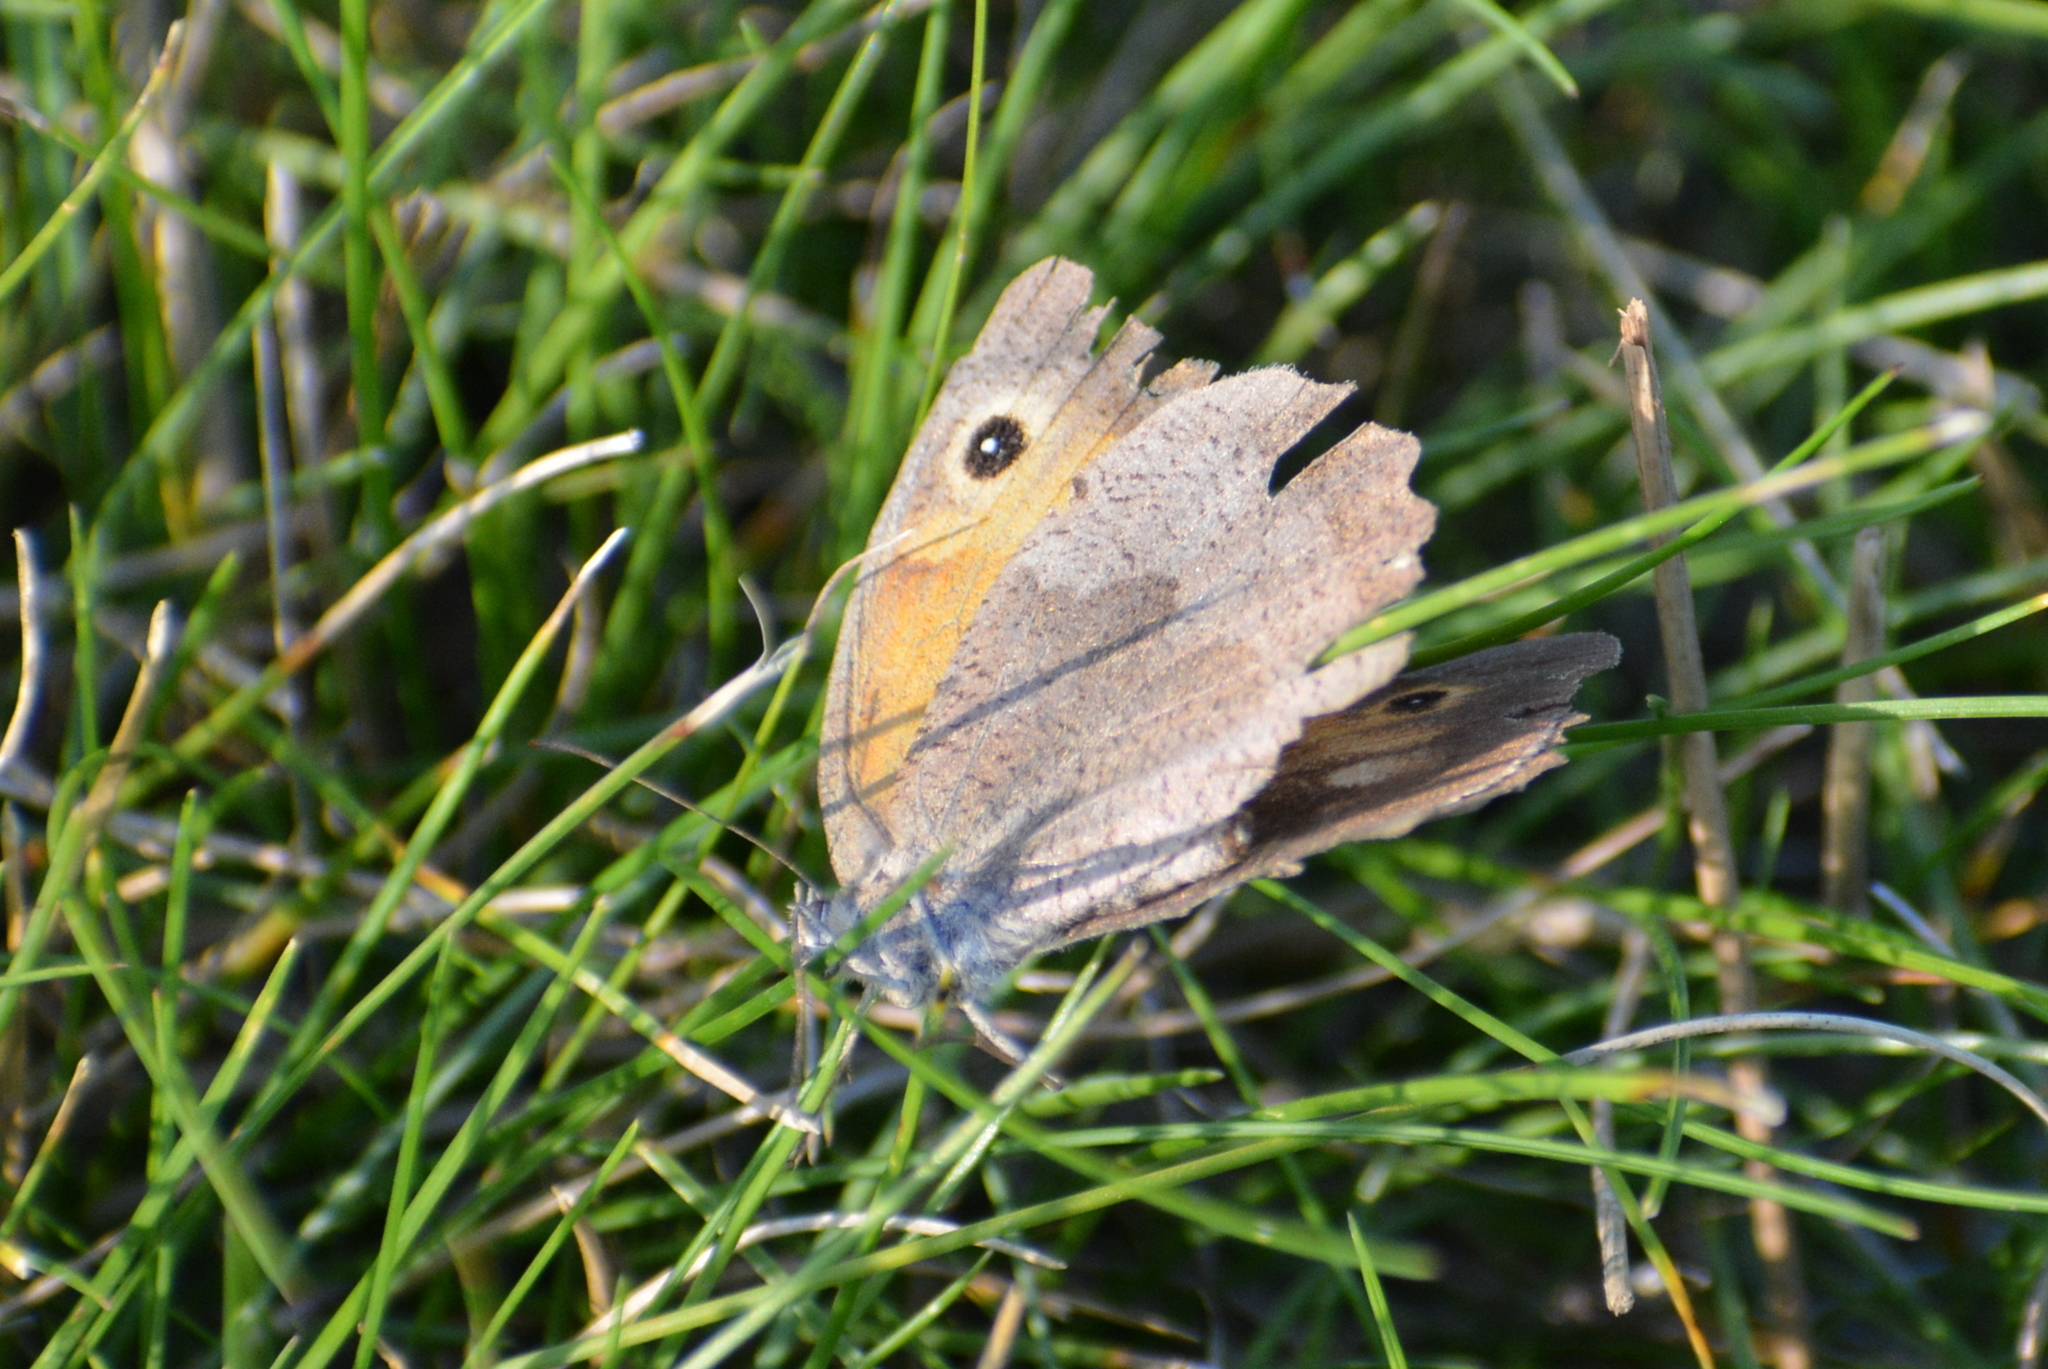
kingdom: Animalia
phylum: Arthropoda
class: Insecta
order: Lepidoptera
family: Nymphalidae
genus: Maniola
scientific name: Maniola jurtina
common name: Meadow brown
